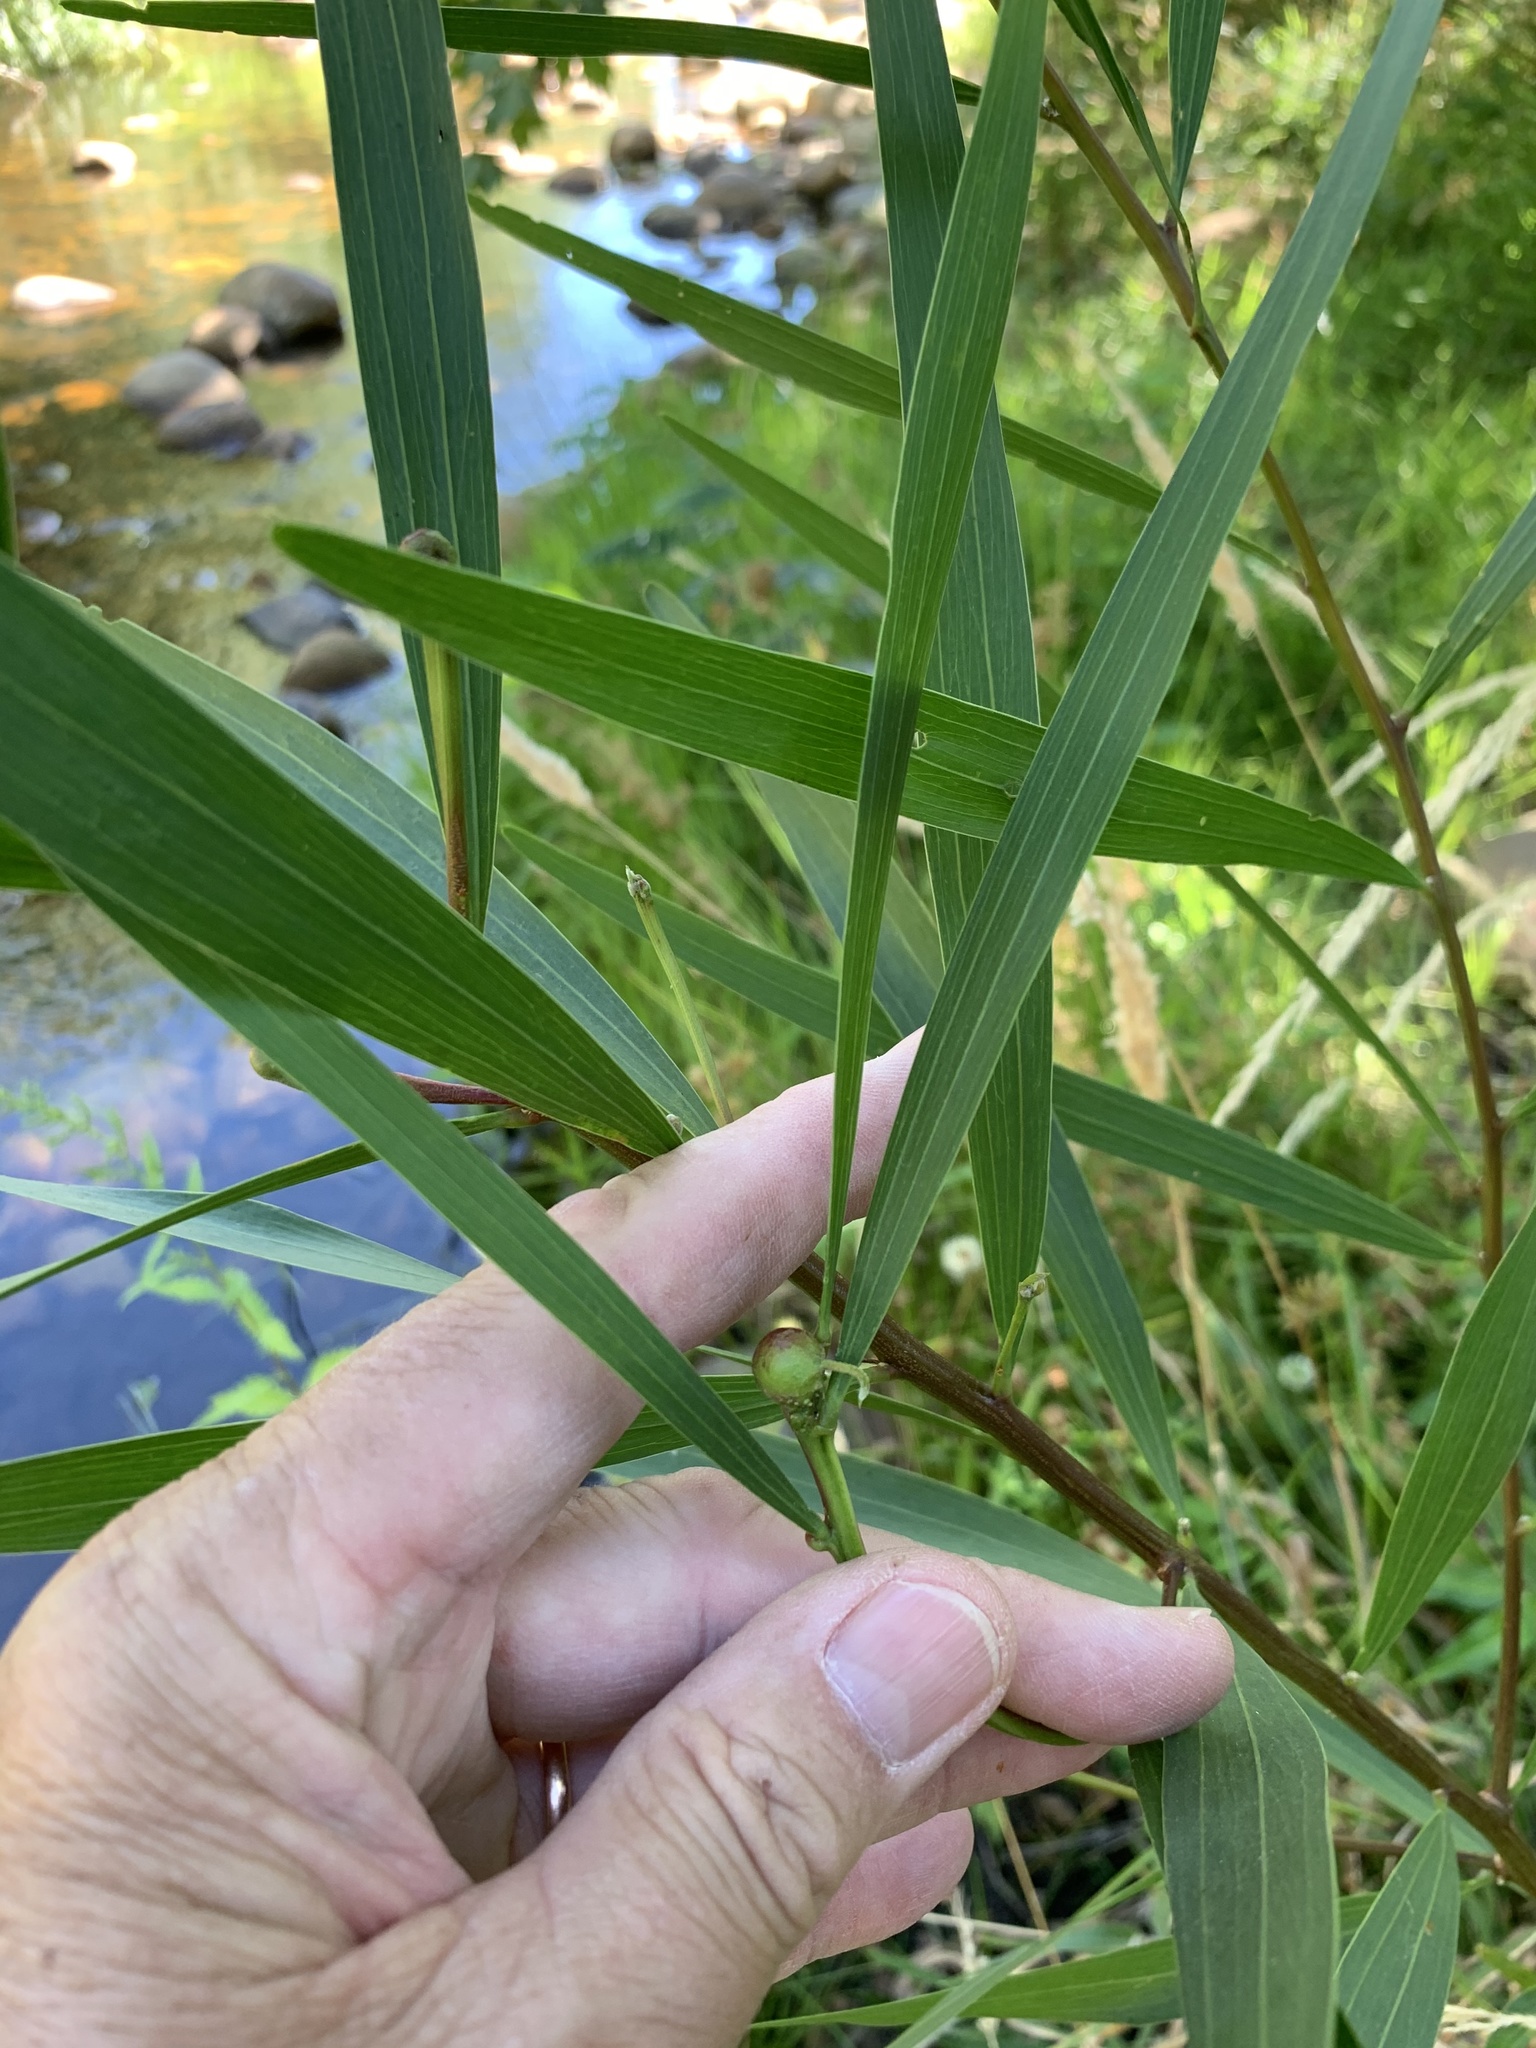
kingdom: Plantae
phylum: Tracheophyta
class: Magnoliopsida
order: Fabales
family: Fabaceae
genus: Acacia
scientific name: Acacia longifolia
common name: Sydney golden wattle
